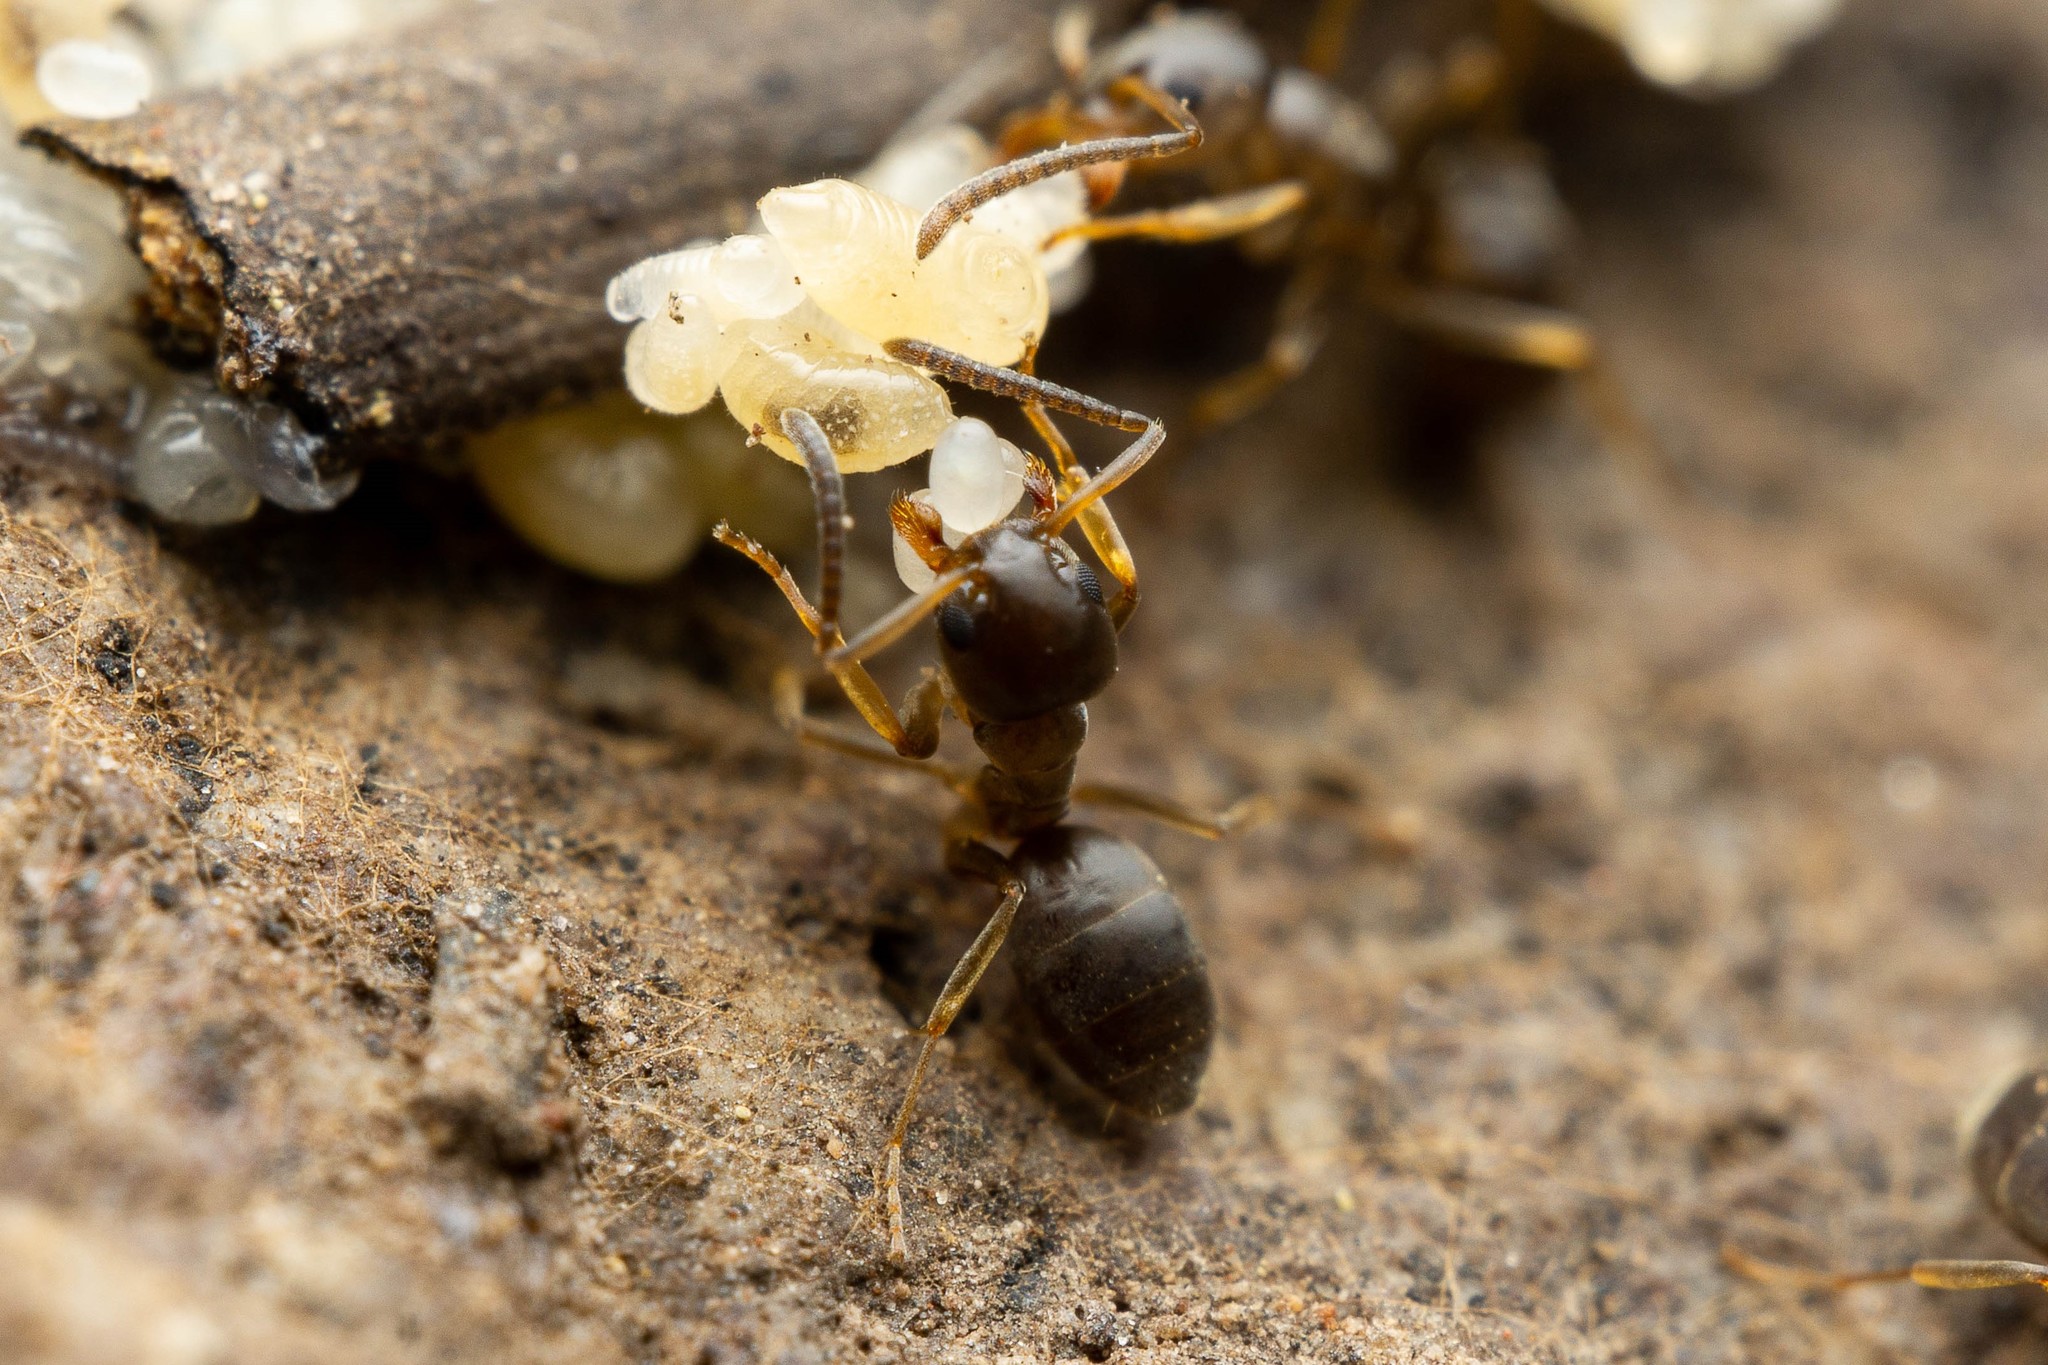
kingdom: Animalia
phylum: Arthropoda
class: Insecta
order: Hymenoptera
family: Formicidae
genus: Tapinoma
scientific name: Tapinoma sessile
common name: Odorous house ant
